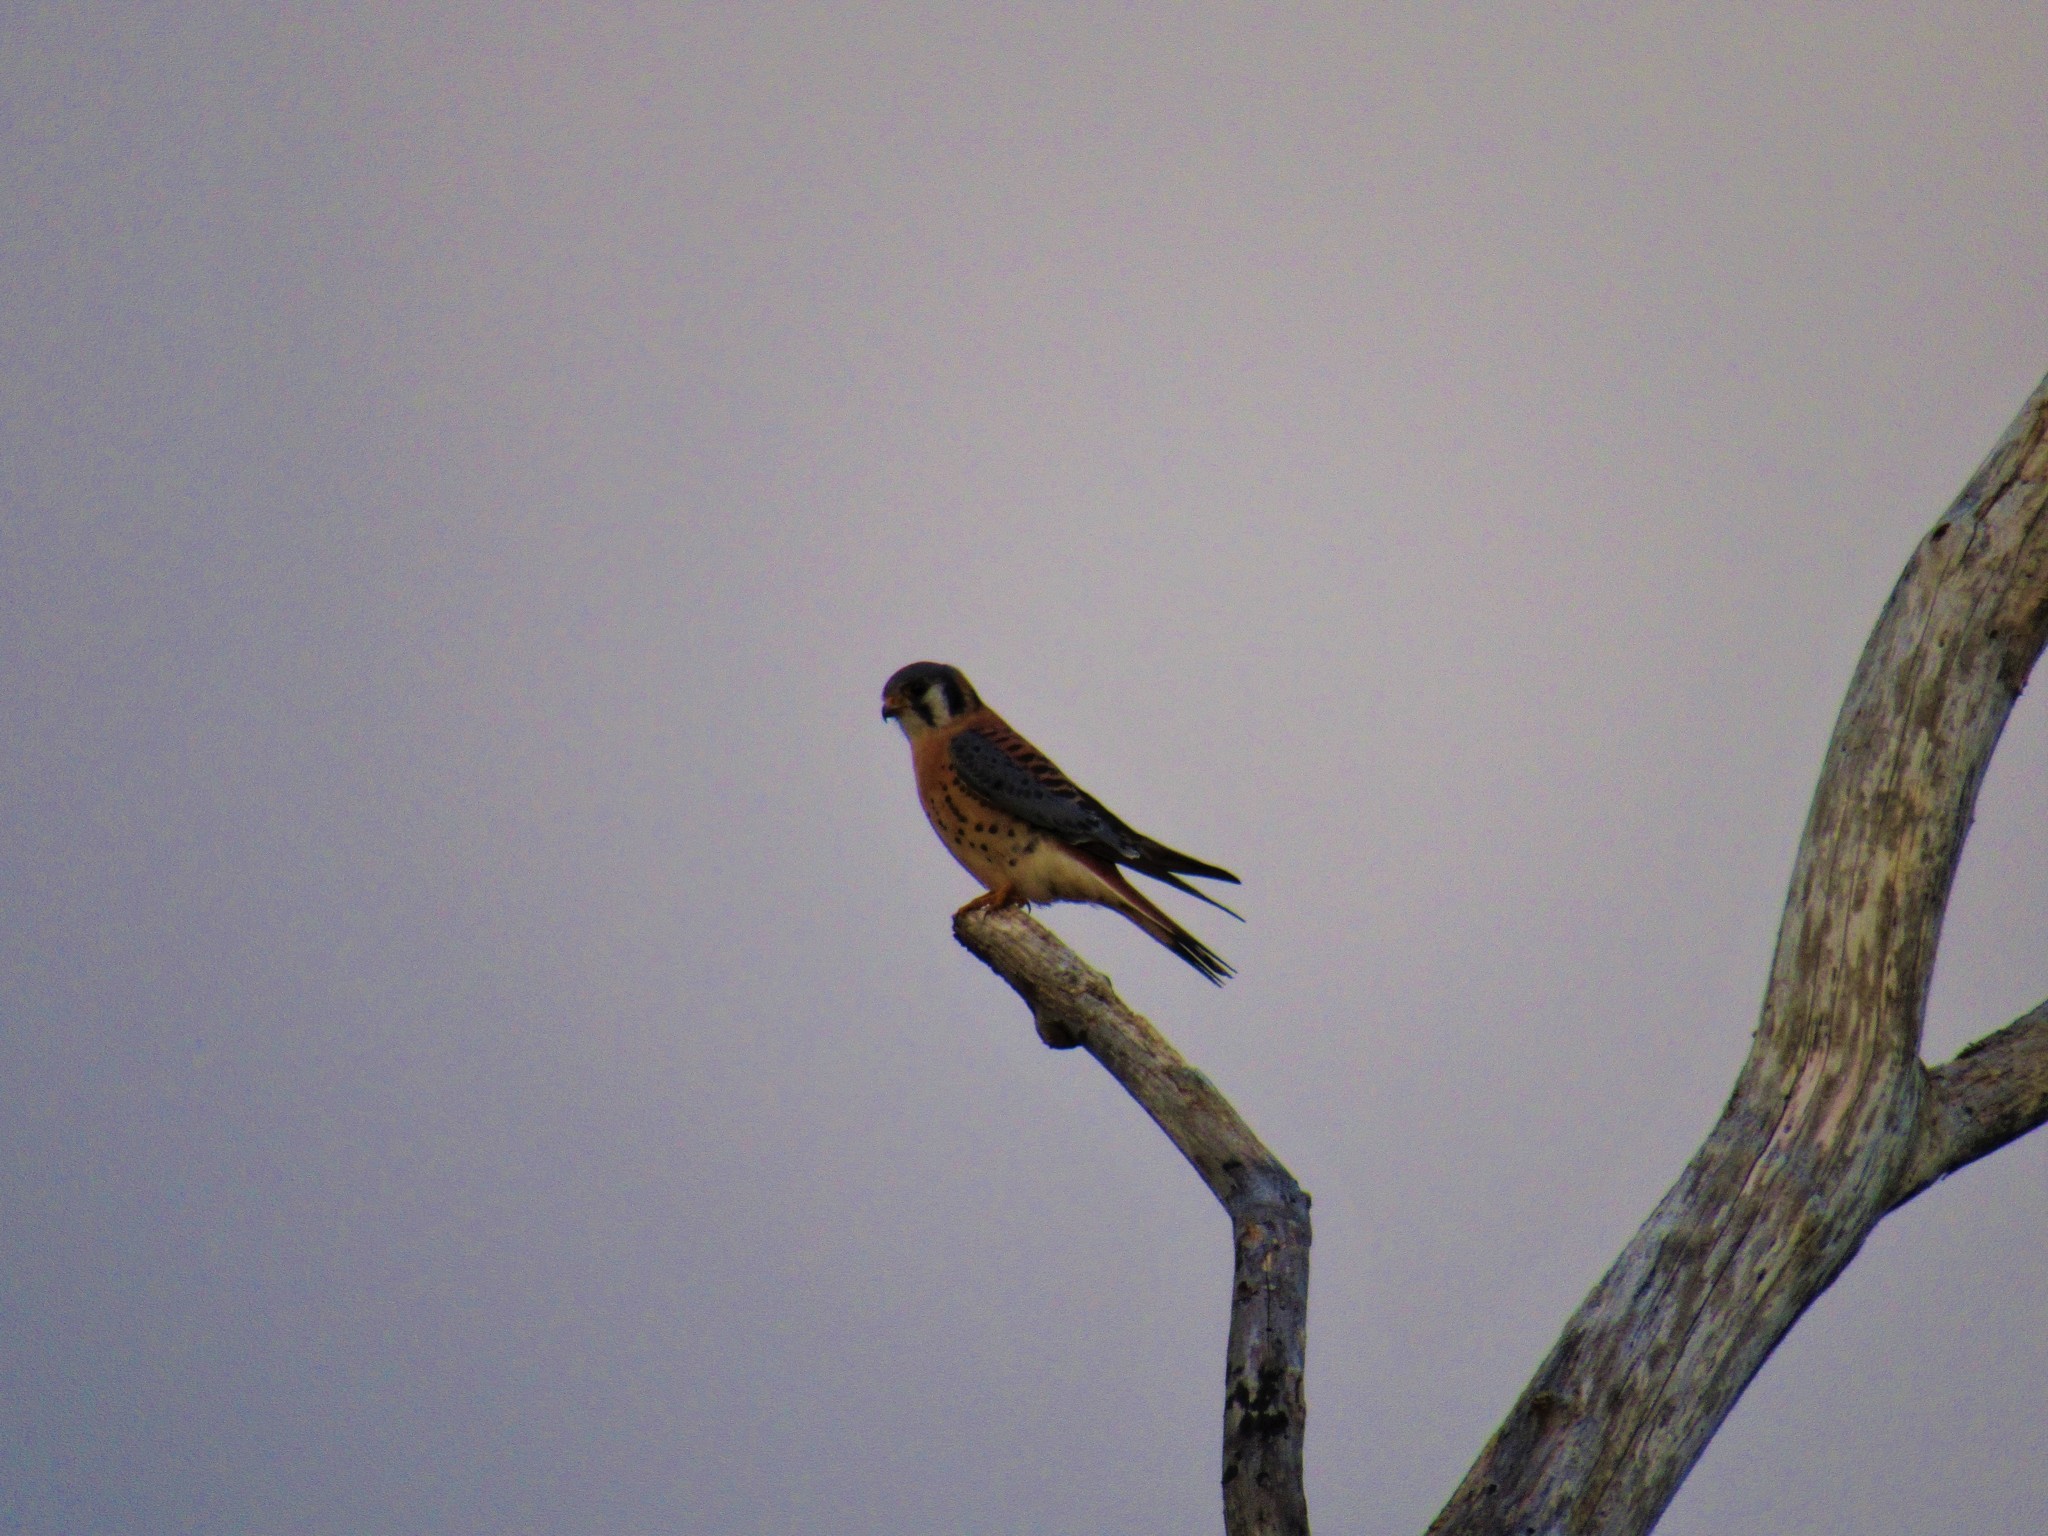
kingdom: Animalia
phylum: Chordata
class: Aves
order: Falconiformes
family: Falconidae
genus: Falco
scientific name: Falco sparverius
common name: American kestrel
